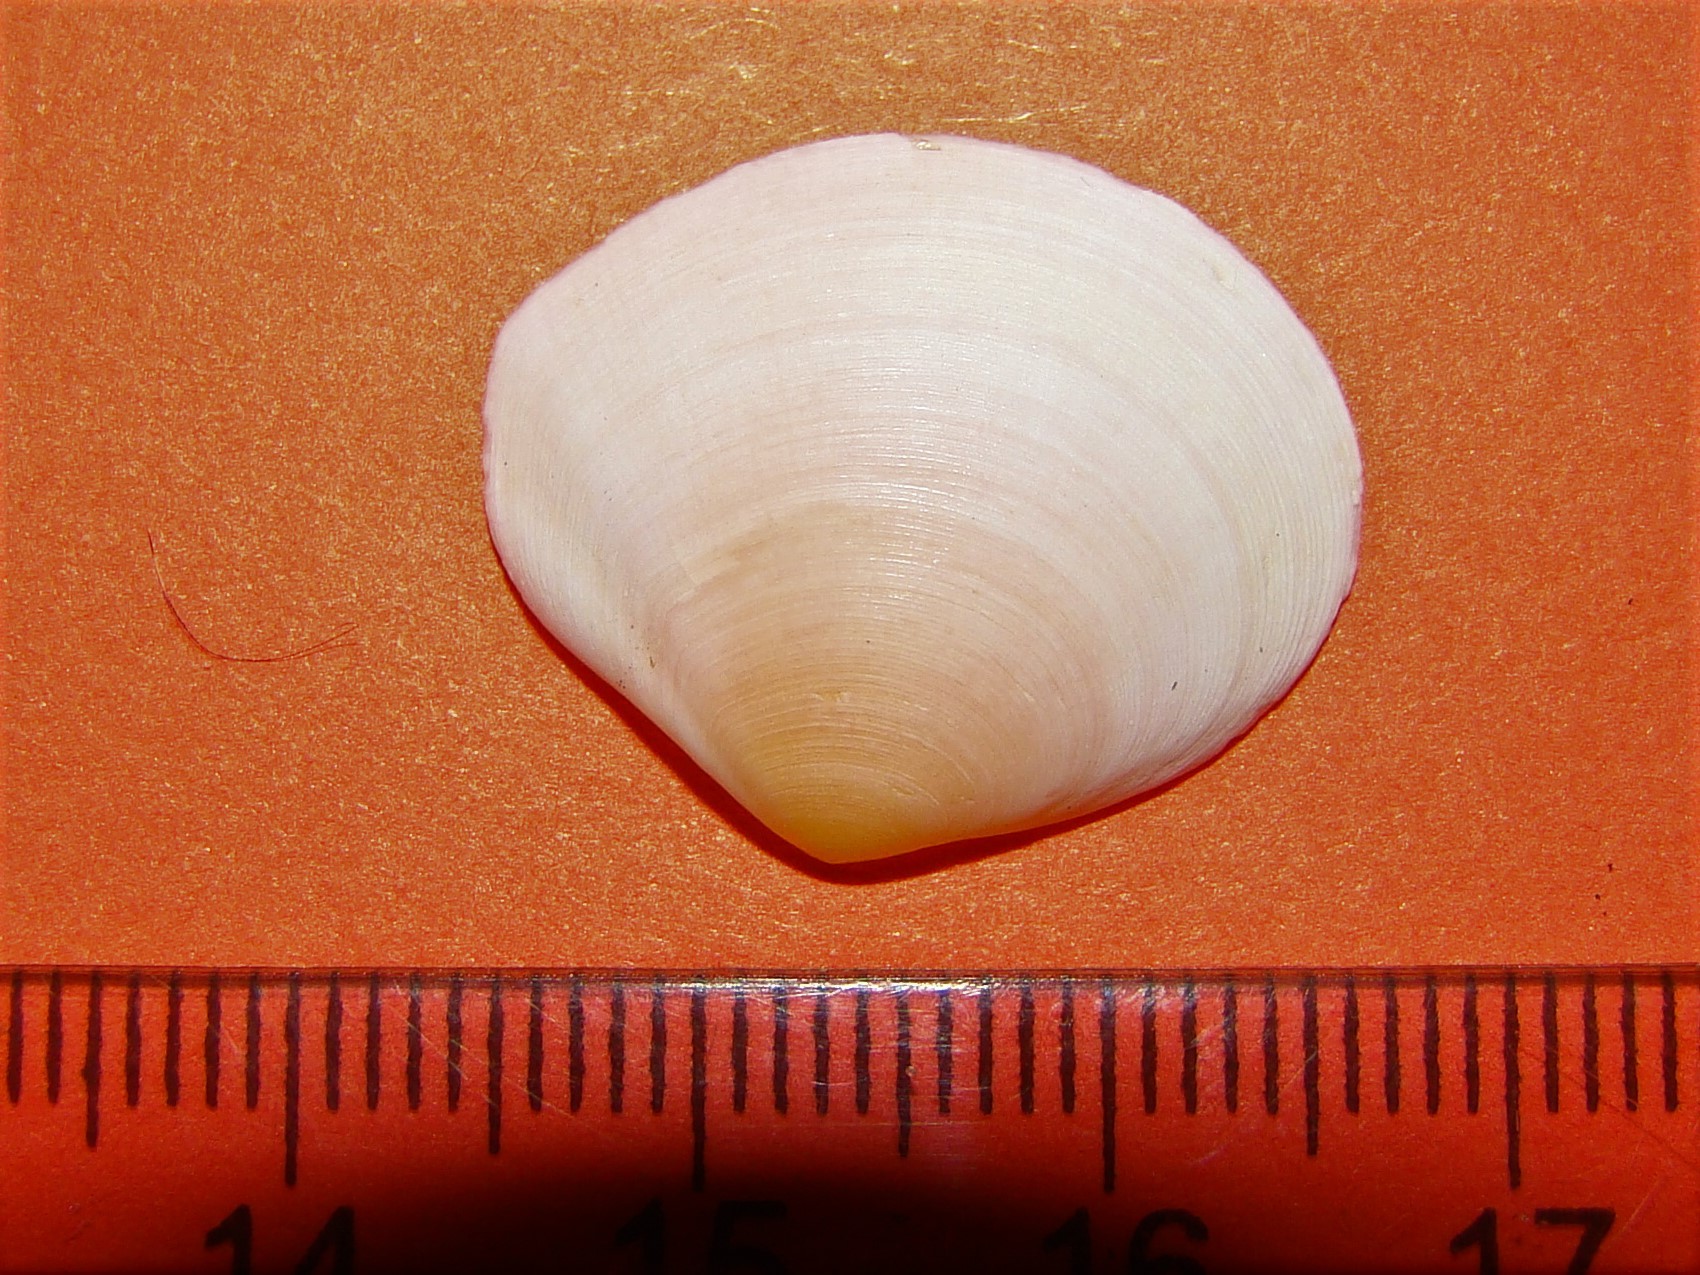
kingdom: Animalia
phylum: Mollusca
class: Bivalvia
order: Cardiida
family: Tellinidae
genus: Pseudarcopagia
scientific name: Pseudarcopagia disculus
